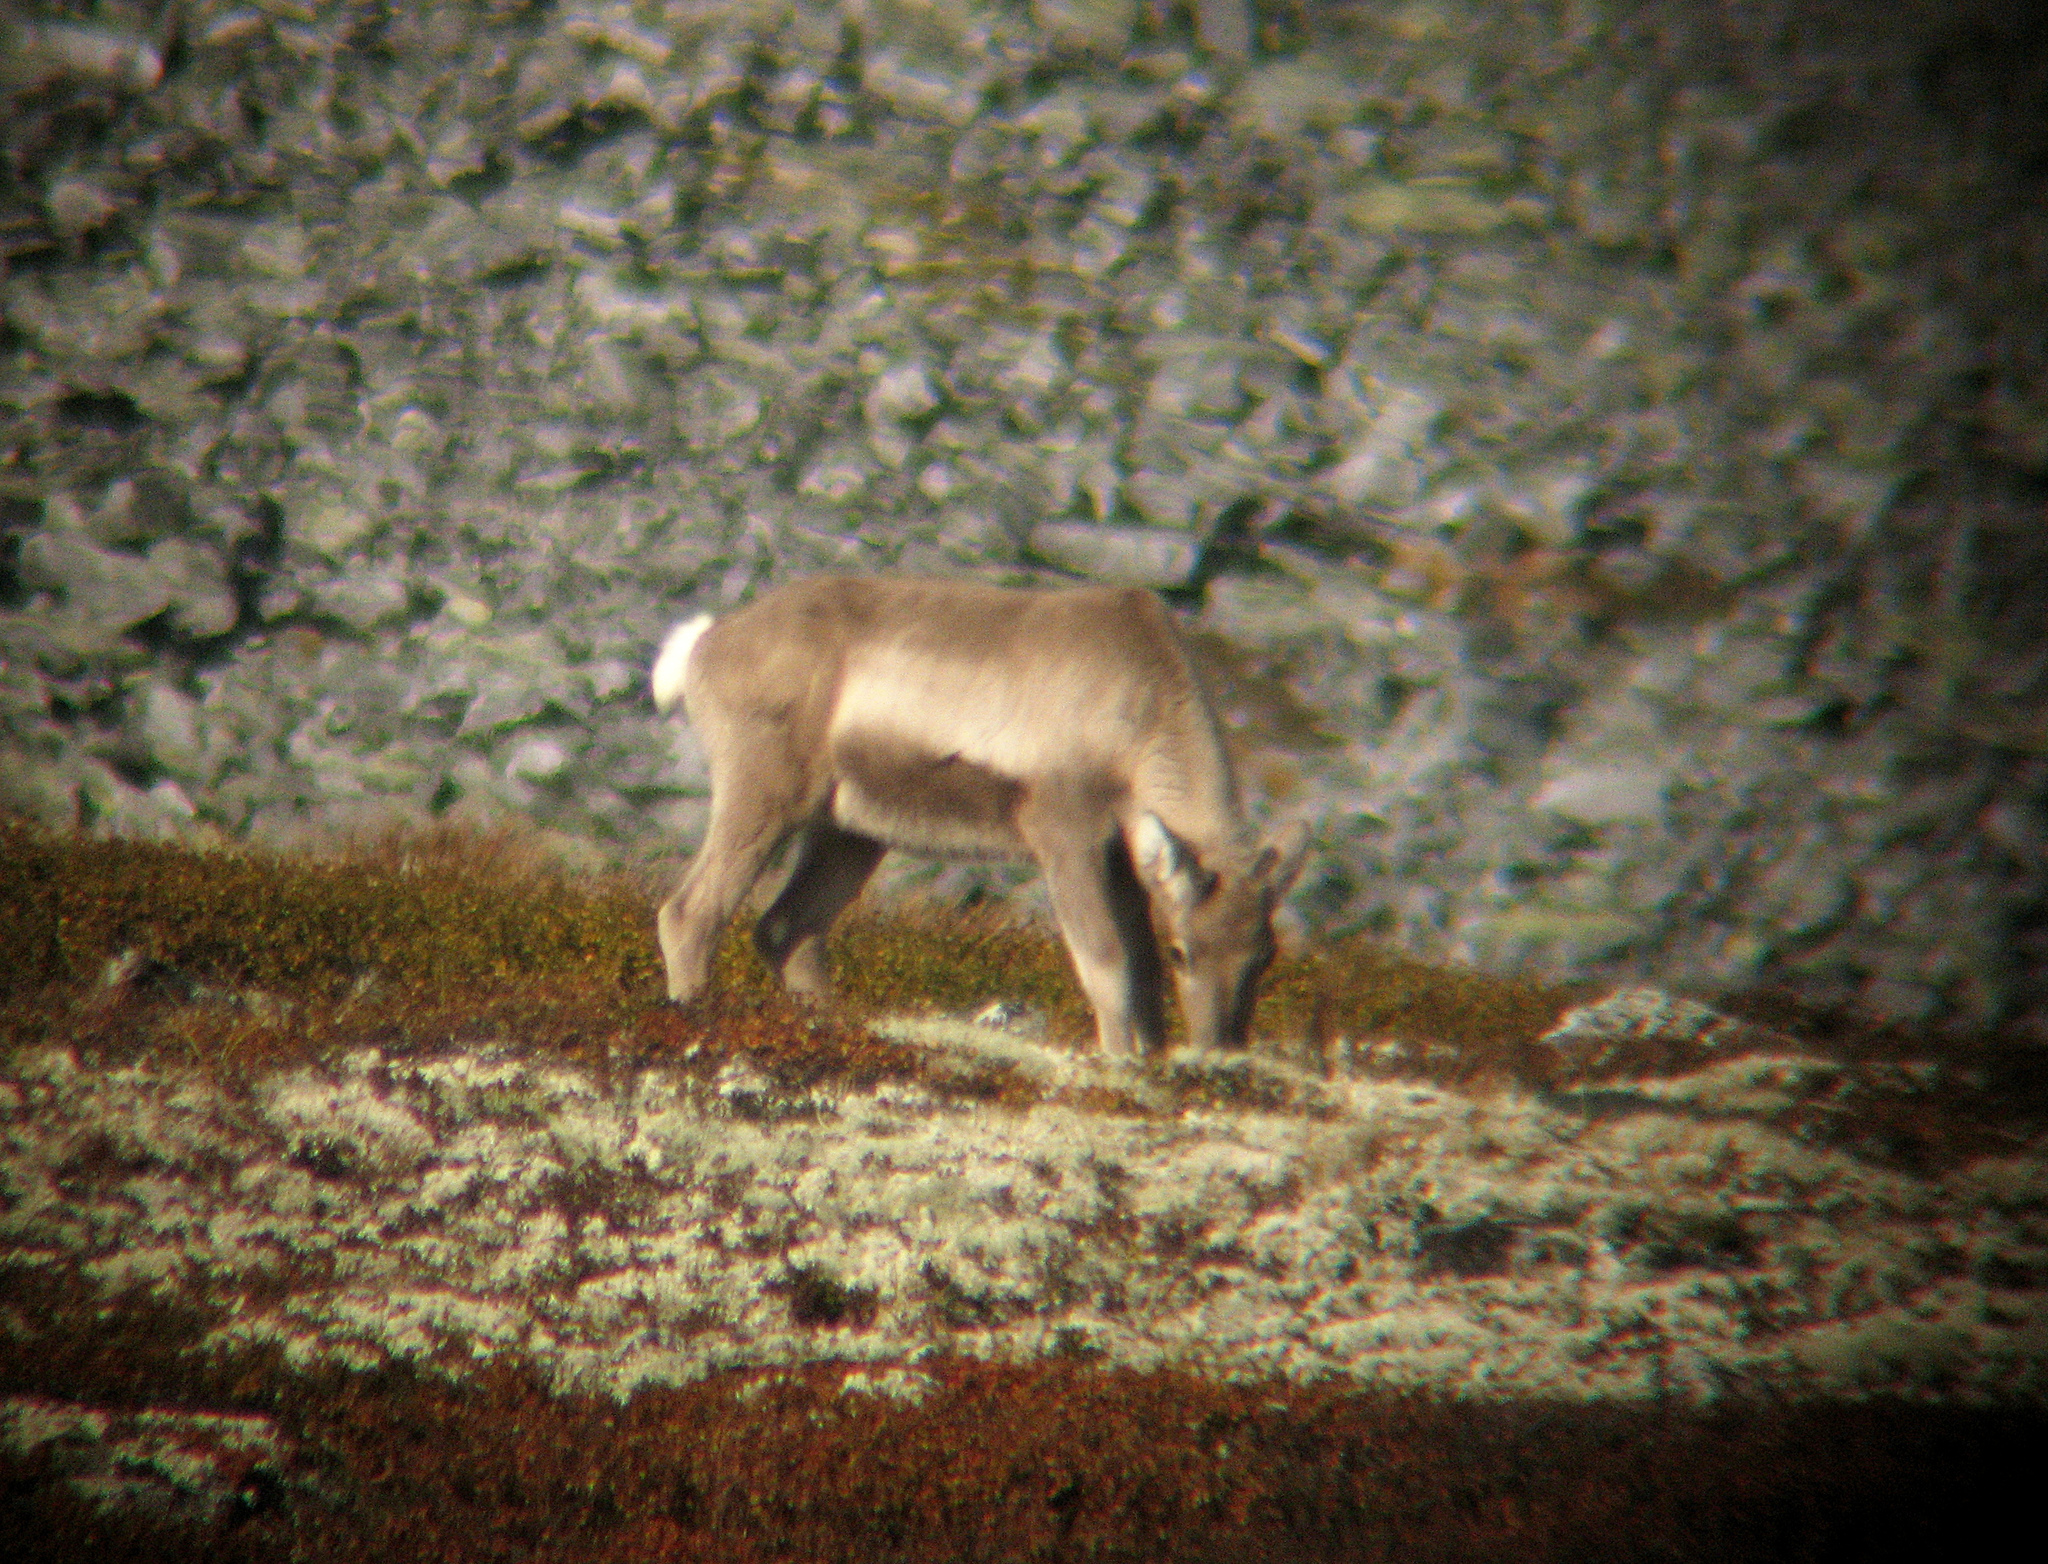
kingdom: Animalia
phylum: Chordata
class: Mammalia
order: Artiodactyla
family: Cervidae
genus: Rangifer
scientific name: Rangifer tarandus
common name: Reindeer
